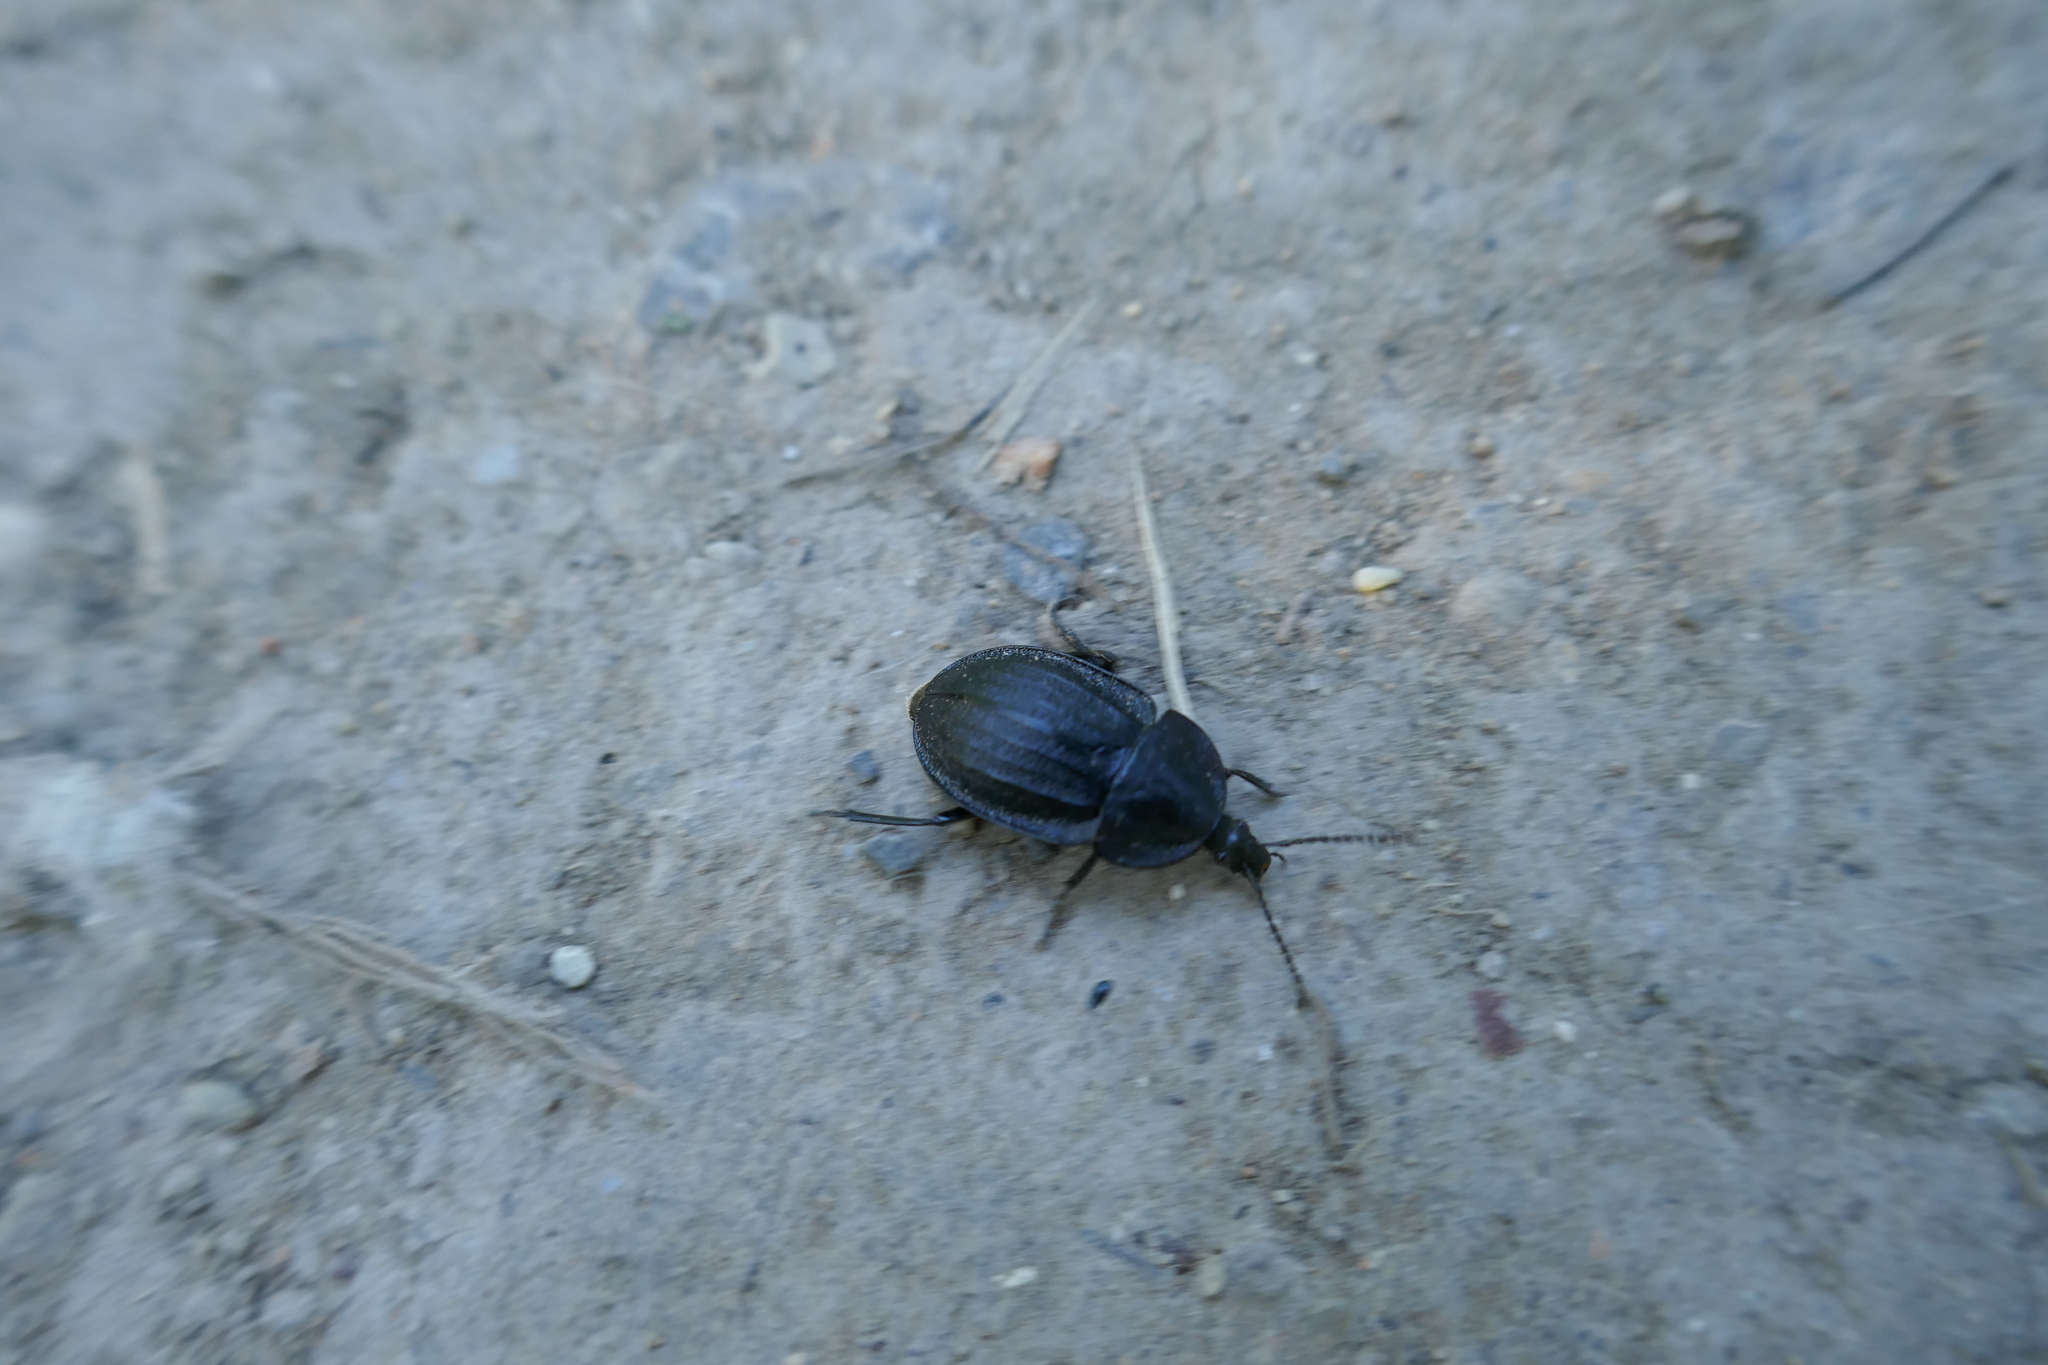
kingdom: Animalia
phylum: Arthropoda
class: Insecta
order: Coleoptera
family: Staphylinidae
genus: Silpha
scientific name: Silpha atrata
